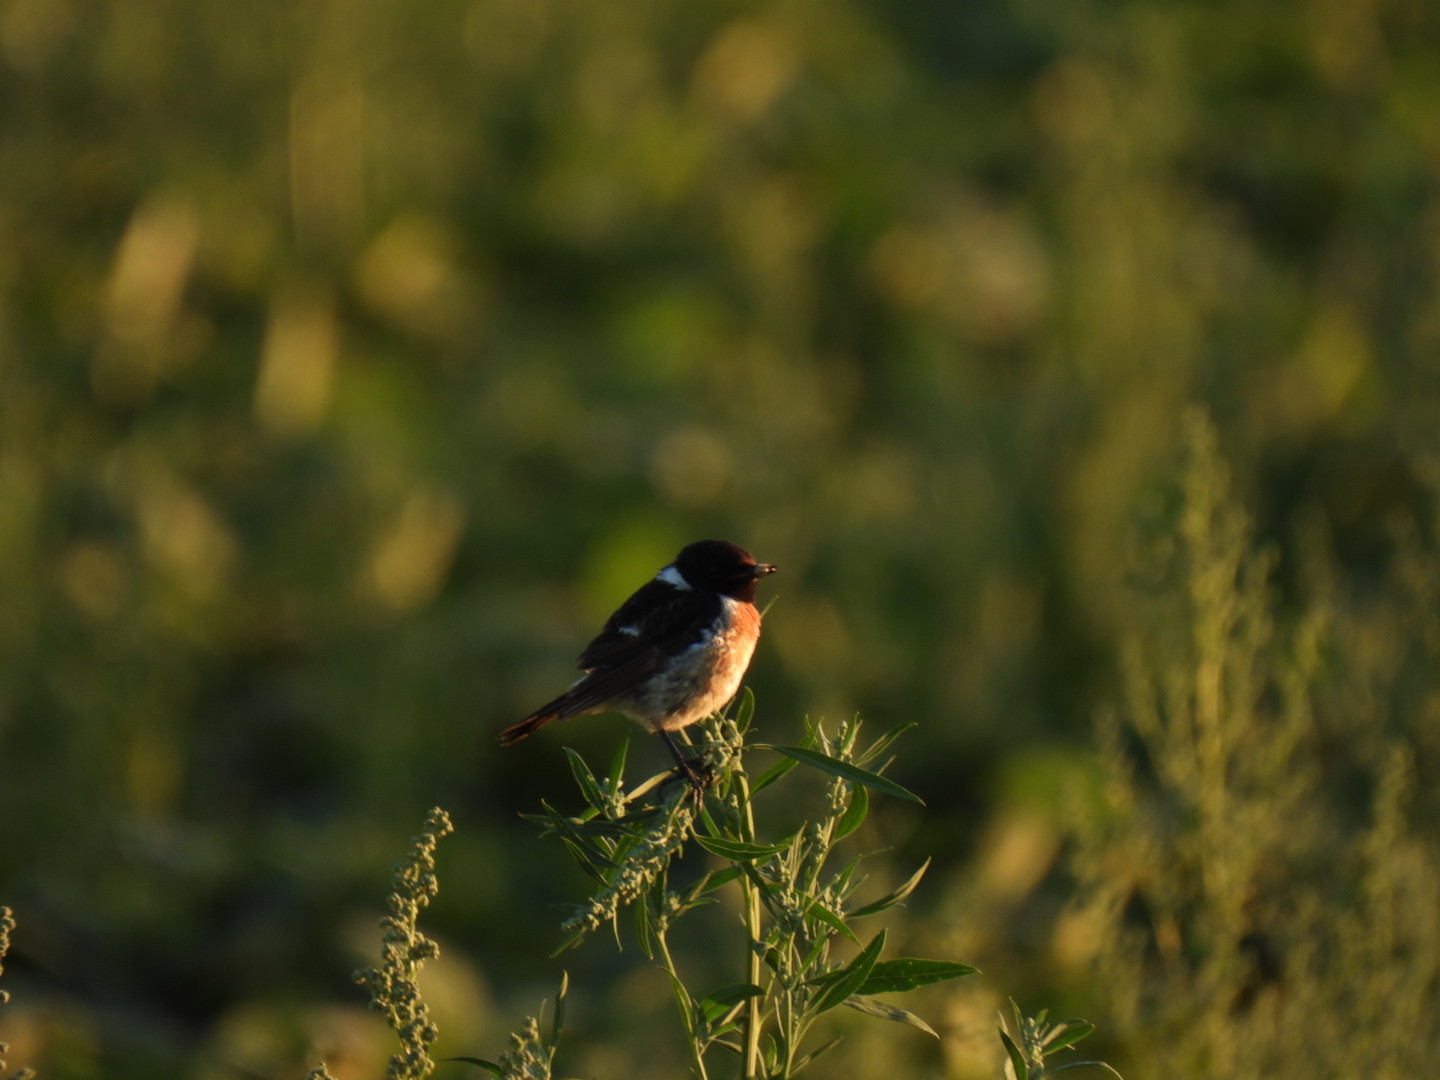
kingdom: Animalia
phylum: Chordata
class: Aves
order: Passeriformes
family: Muscicapidae
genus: Saxicola
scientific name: Saxicola rubicola
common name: European stonechat
